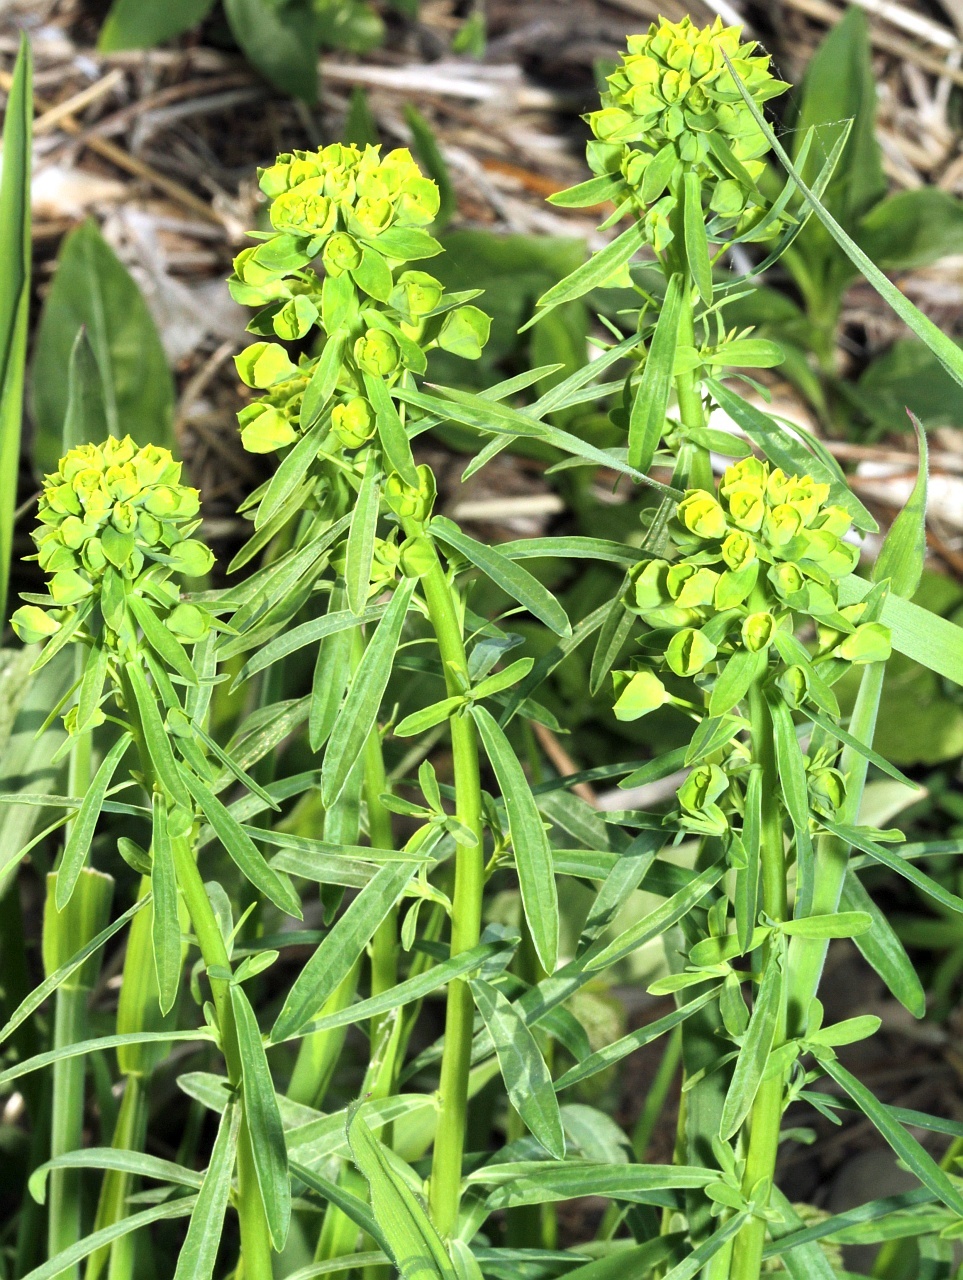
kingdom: Plantae
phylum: Tracheophyta
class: Magnoliopsida
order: Malpighiales
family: Euphorbiaceae
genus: Euphorbia
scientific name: Euphorbia esula
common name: Leafy spurge
